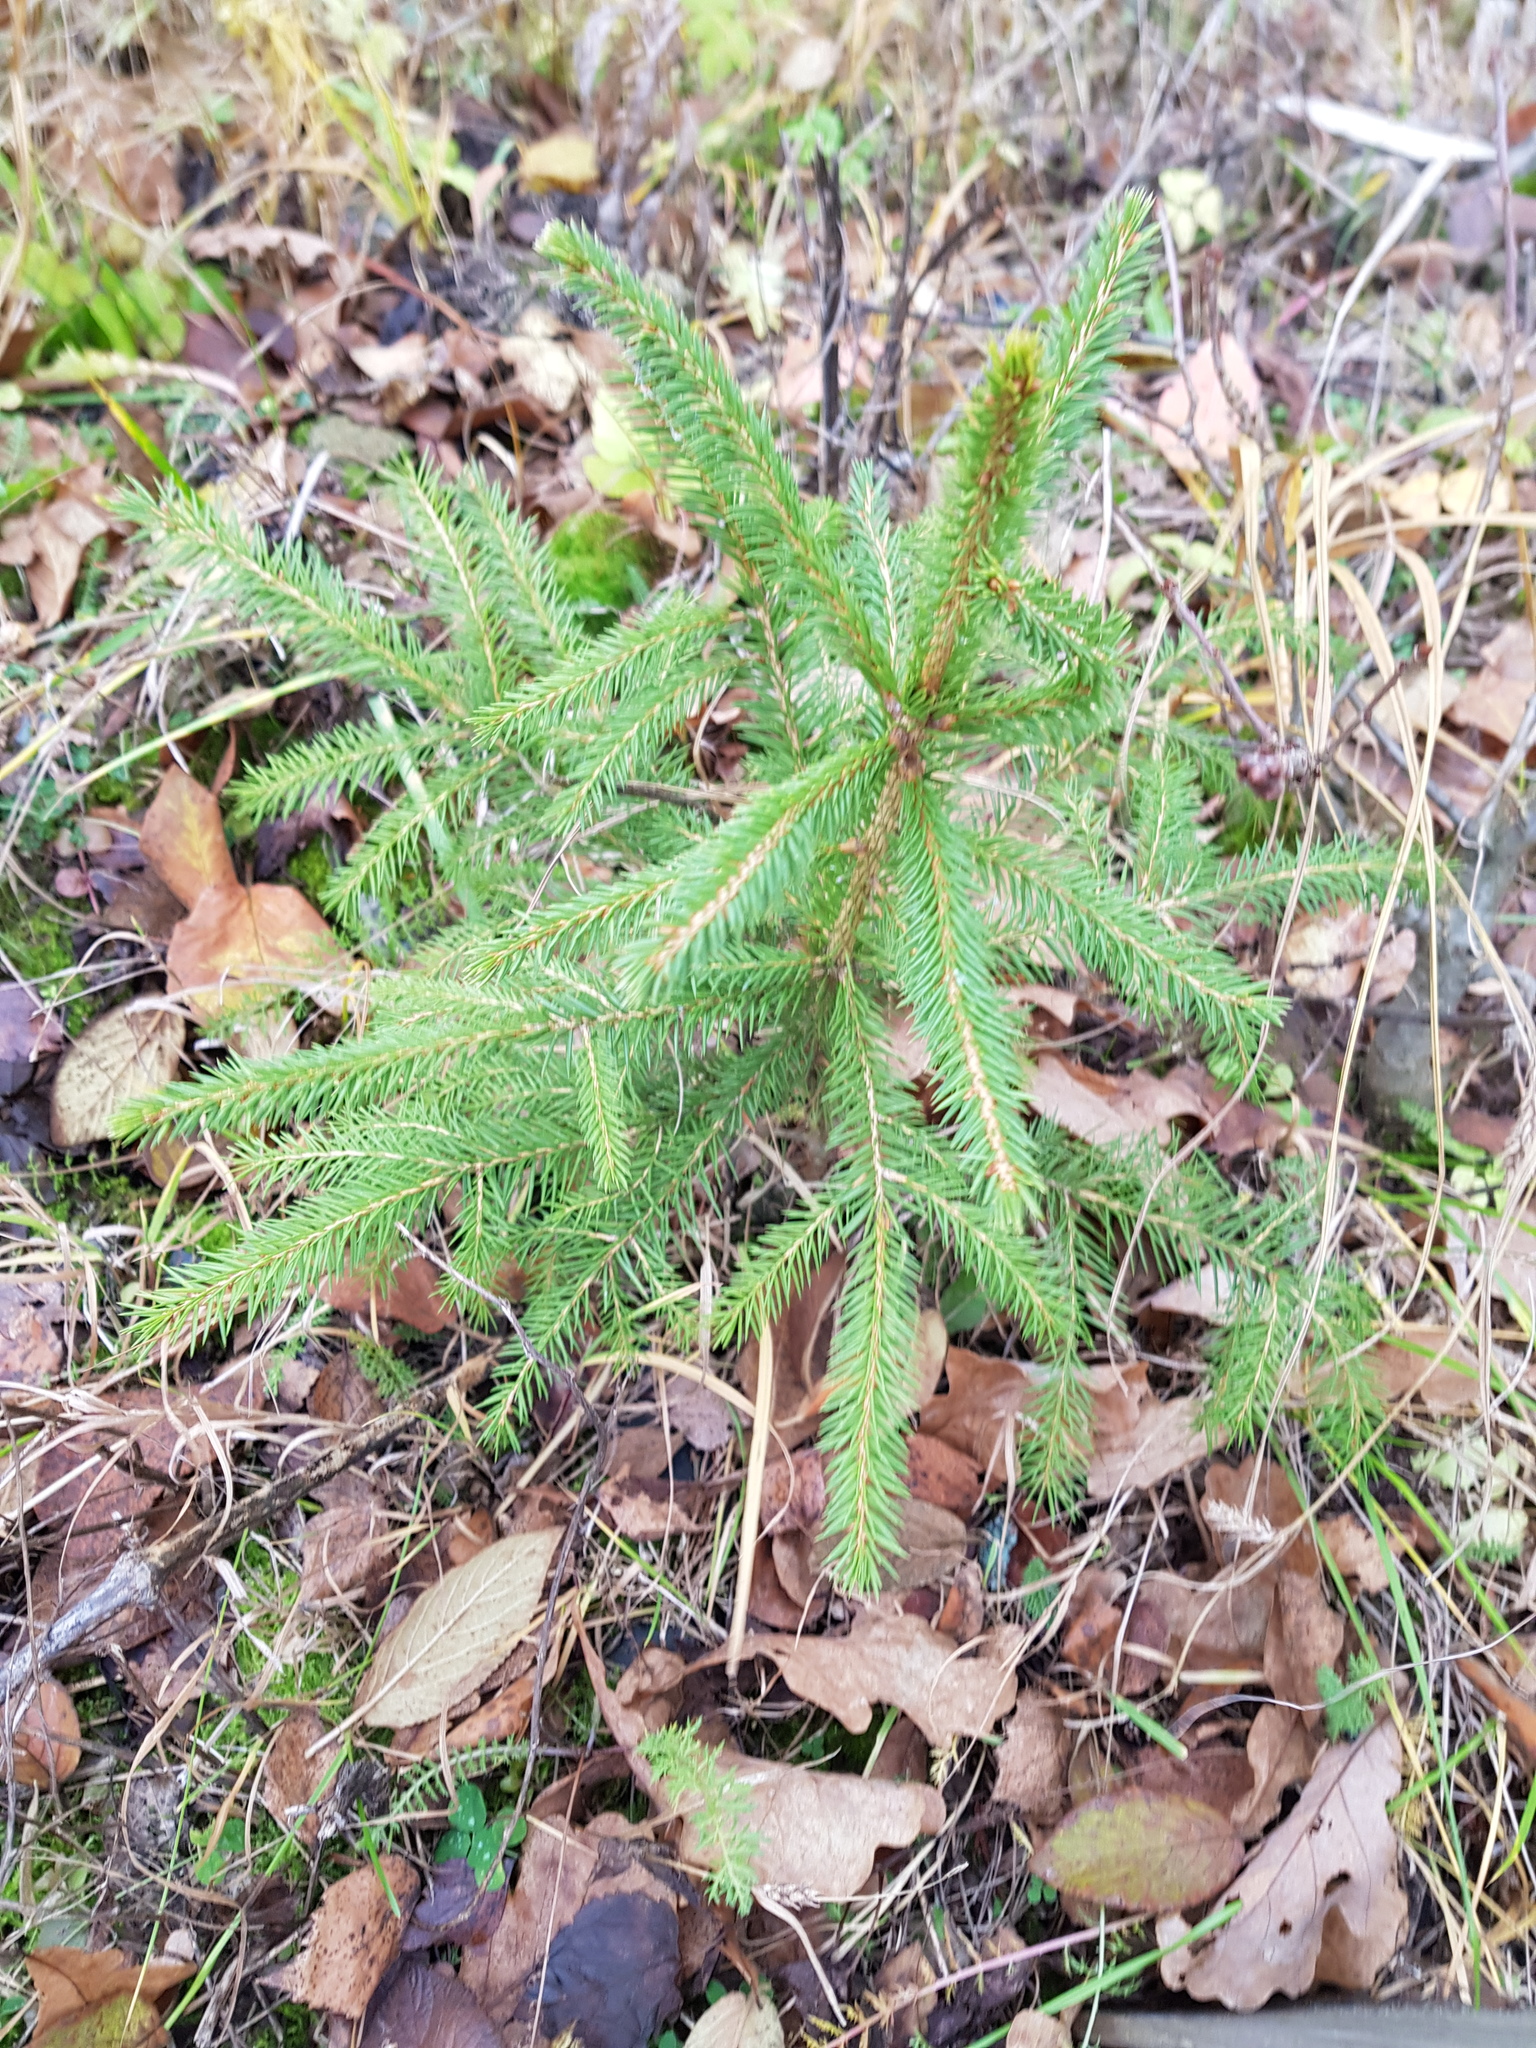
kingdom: Plantae
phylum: Tracheophyta
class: Pinopsida
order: Pinales
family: Pinaceae
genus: Picea
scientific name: Picea abies
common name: Norway spruce
